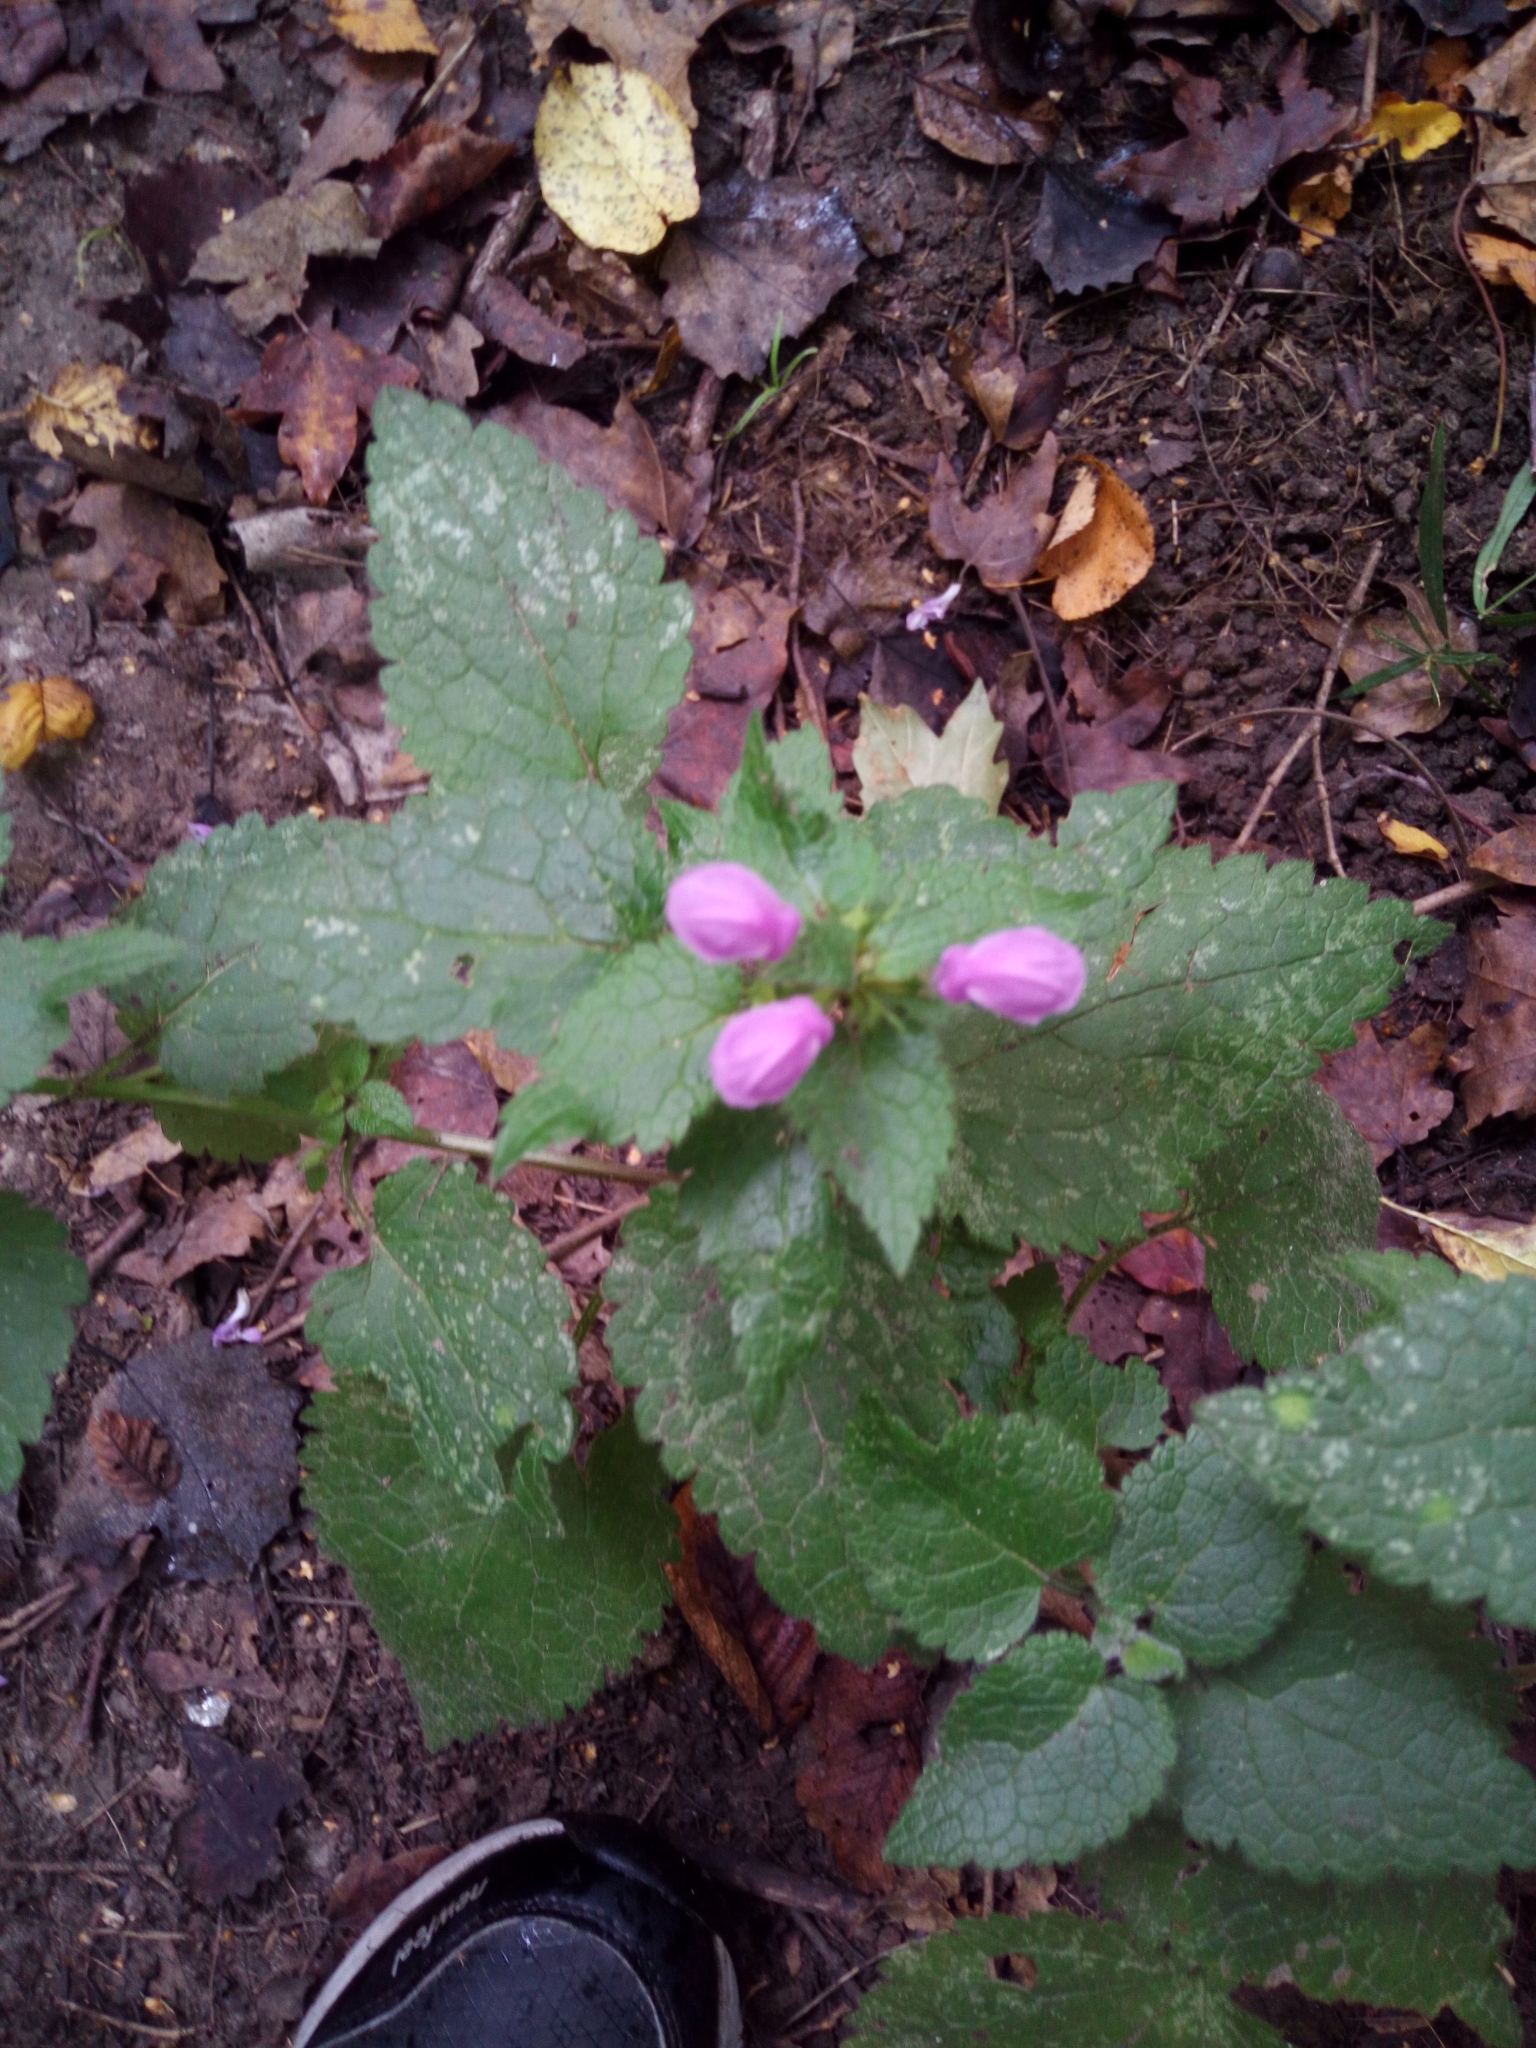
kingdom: Plantae
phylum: Tracheophyta
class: Magnoliopsida
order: Lamiales
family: Lamiaceae
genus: Lamium
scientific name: Lamium maculatum
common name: Spotted dead-nettle
